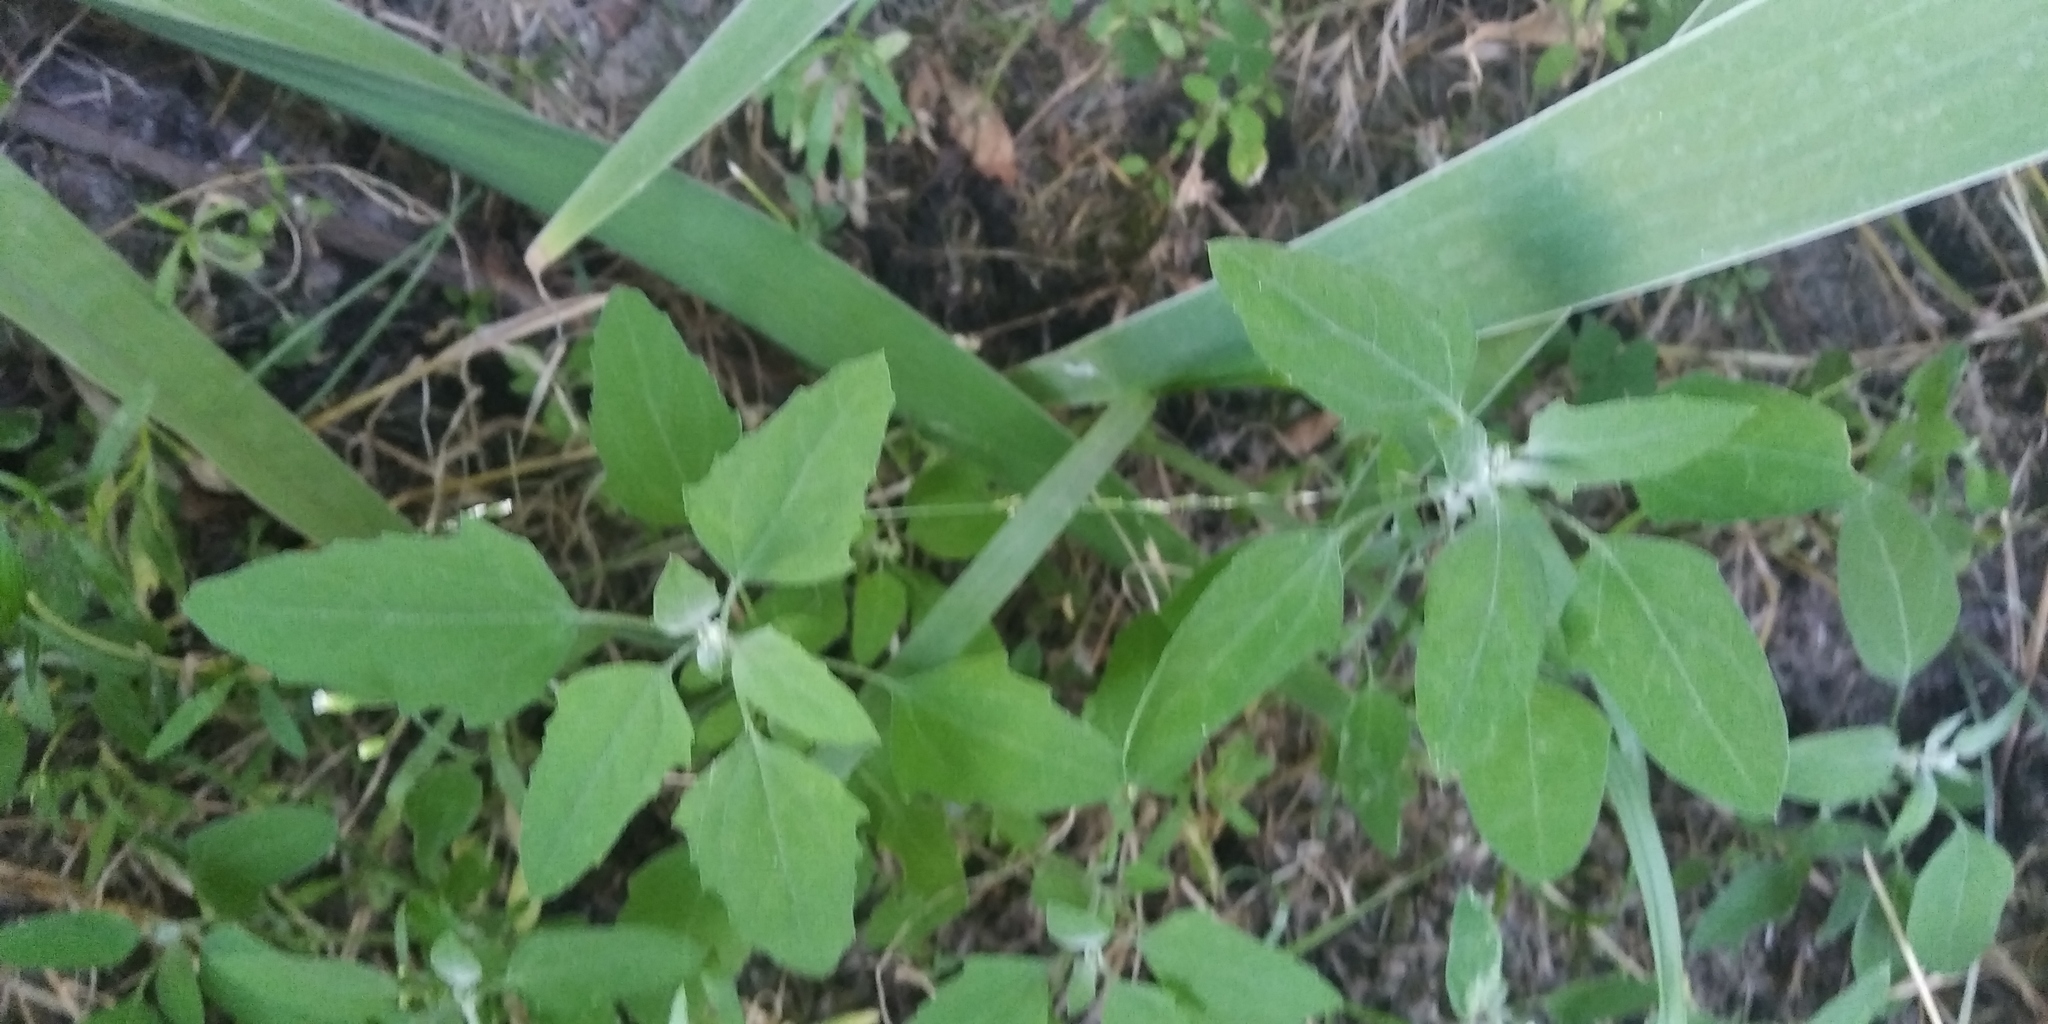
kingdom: Plantae
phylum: Tracheophyta
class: Magnoliopsida
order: Caryophyllales
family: Amaranthaceae
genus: Chenopodium
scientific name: Chenopodium album
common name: Fat-hen
